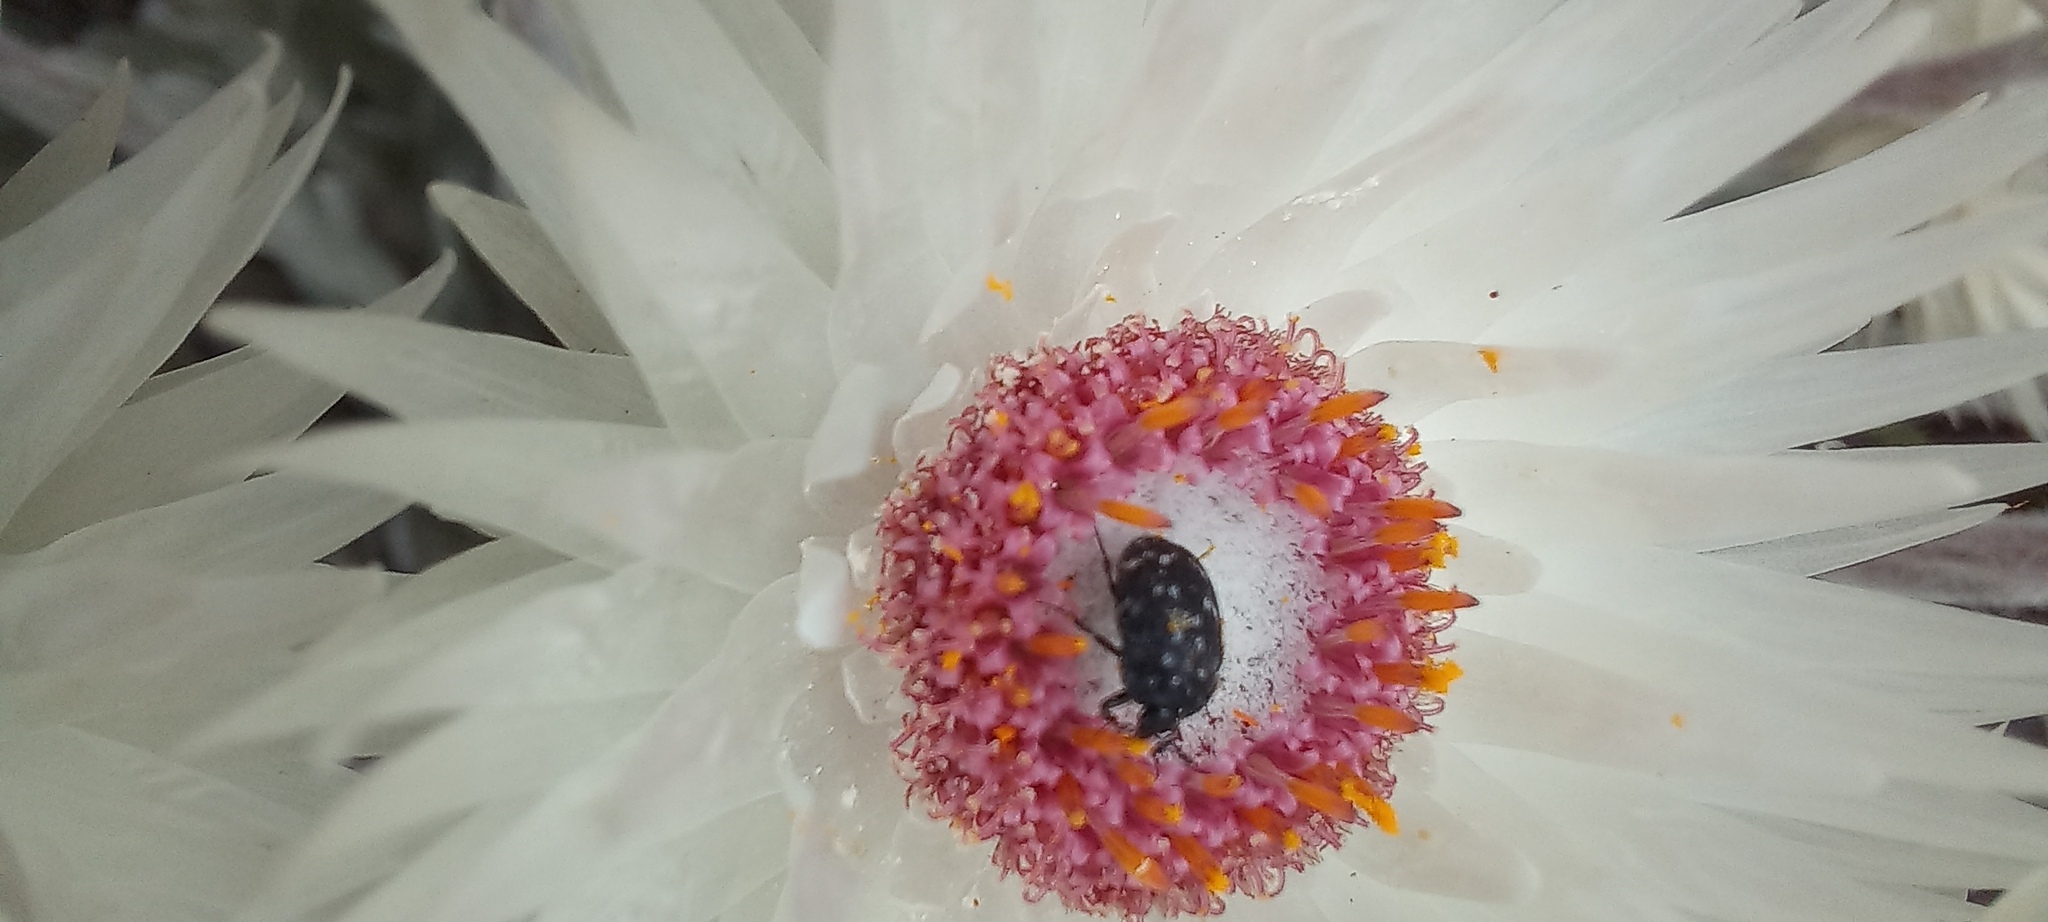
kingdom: Animalia
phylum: Arthropoda
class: Insecta
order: Coleoptera
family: Dermestidae
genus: Anthrenus
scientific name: Anthrenus
